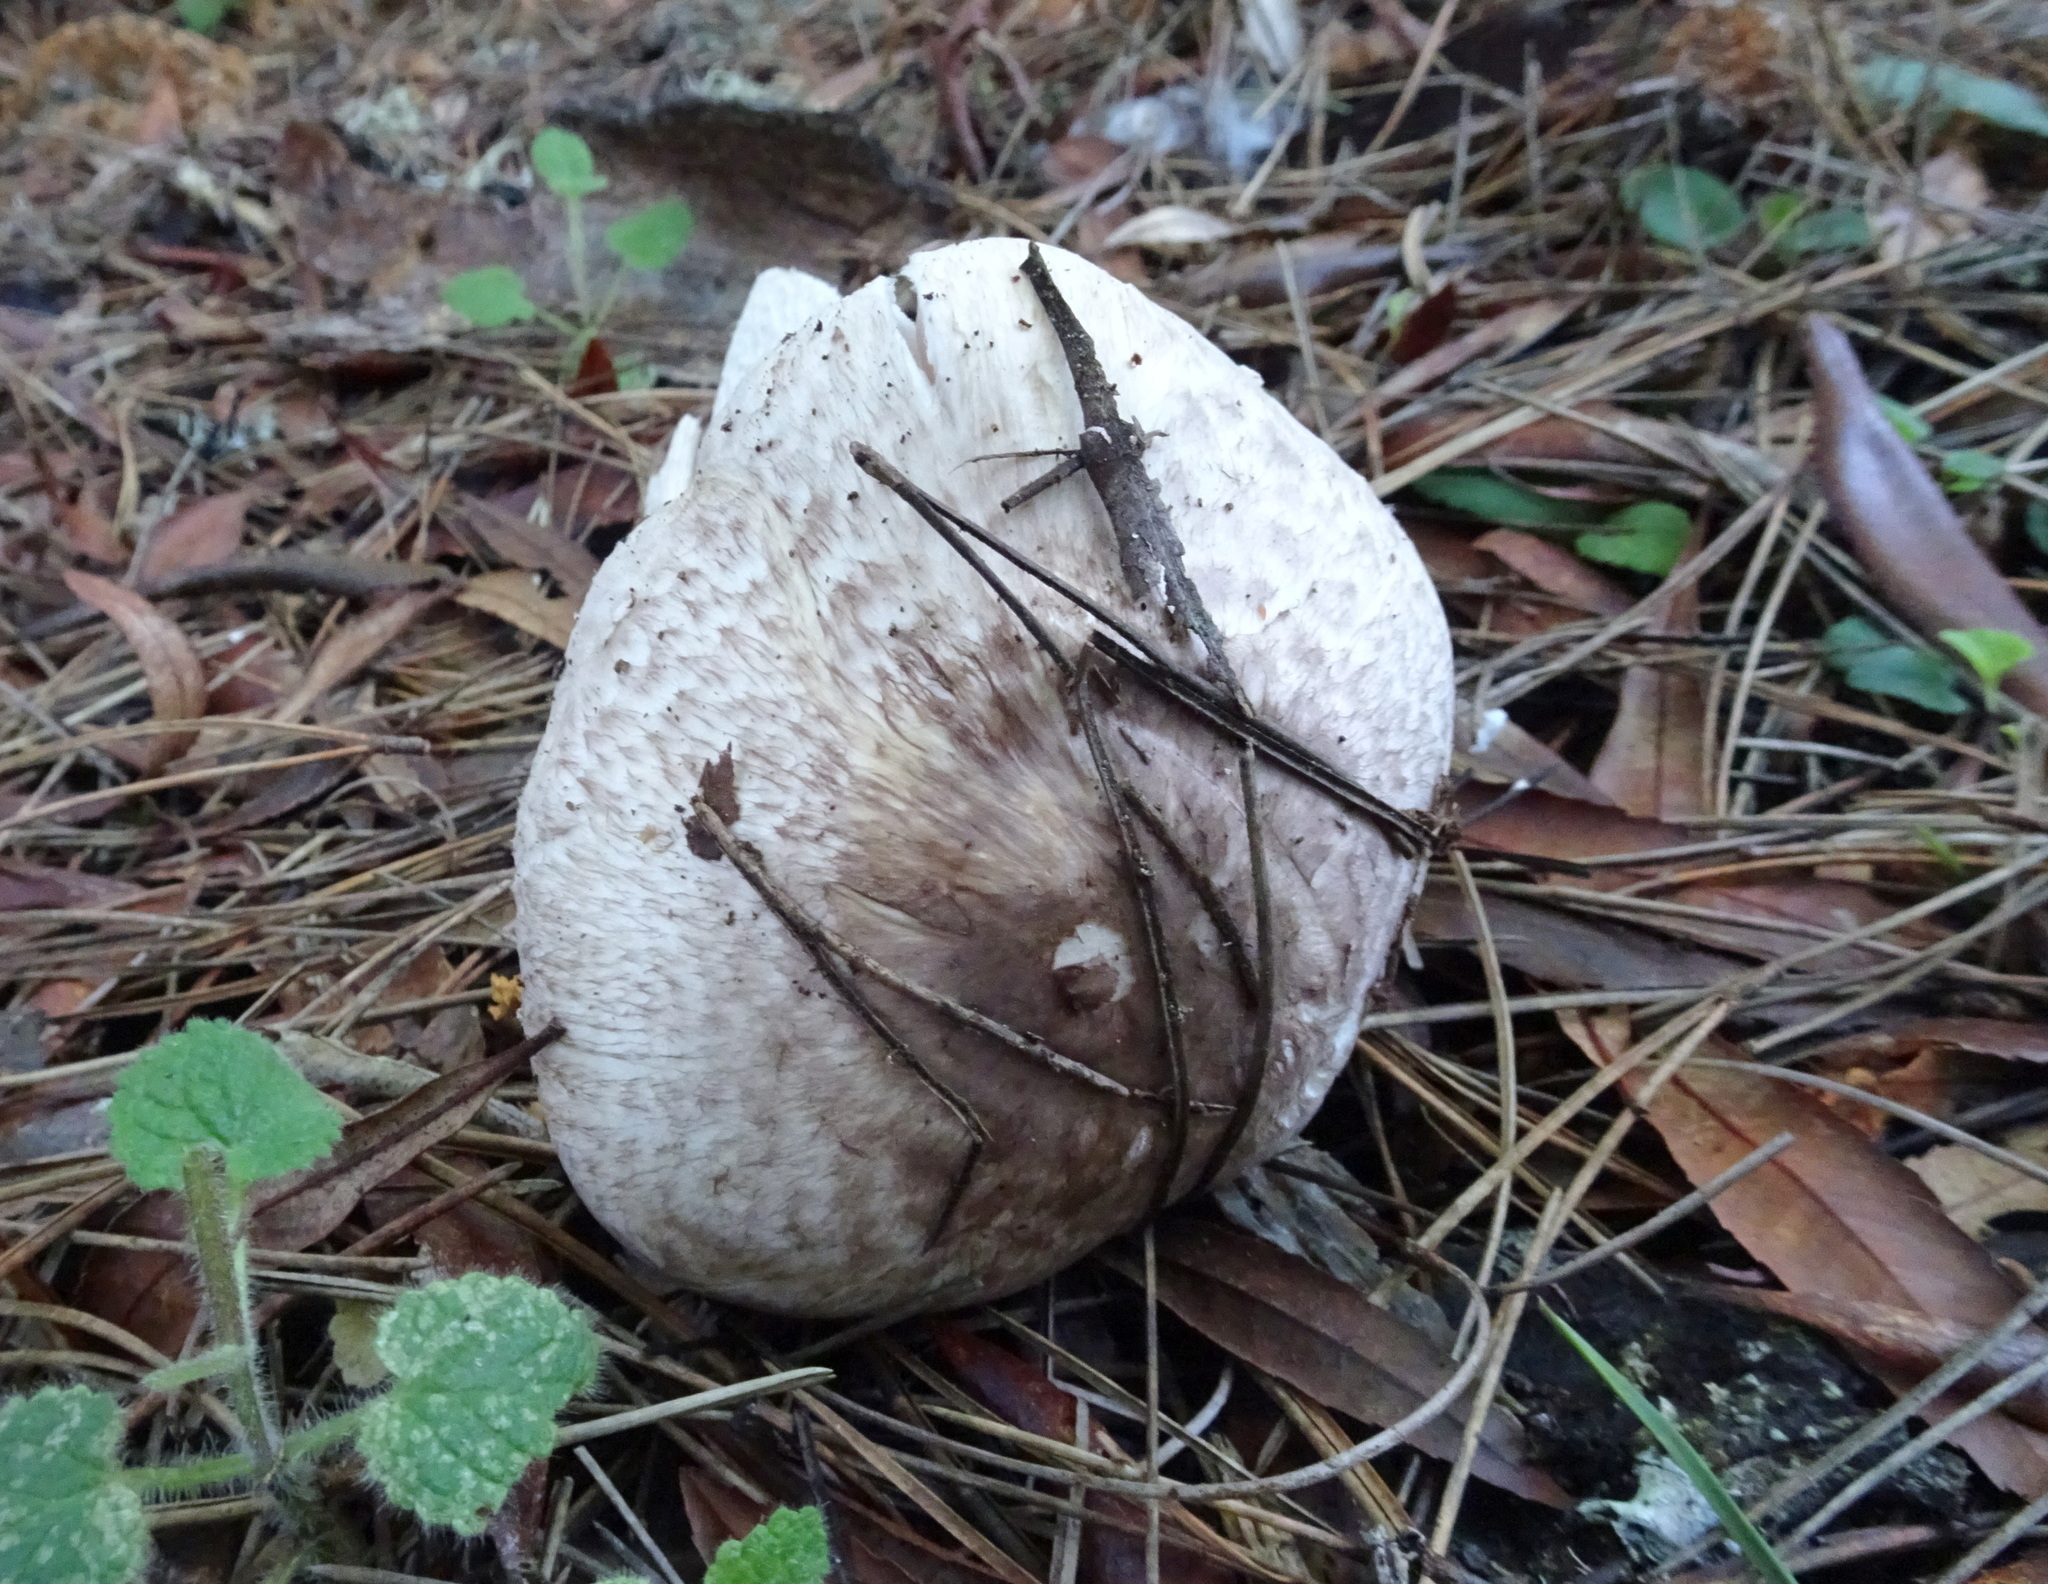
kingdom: Fungi
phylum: Basidiomycota
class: Agaricomycetes
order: Agaricales
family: Agaricaceae
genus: Agaricus
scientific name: Agaricus subrutilescens
